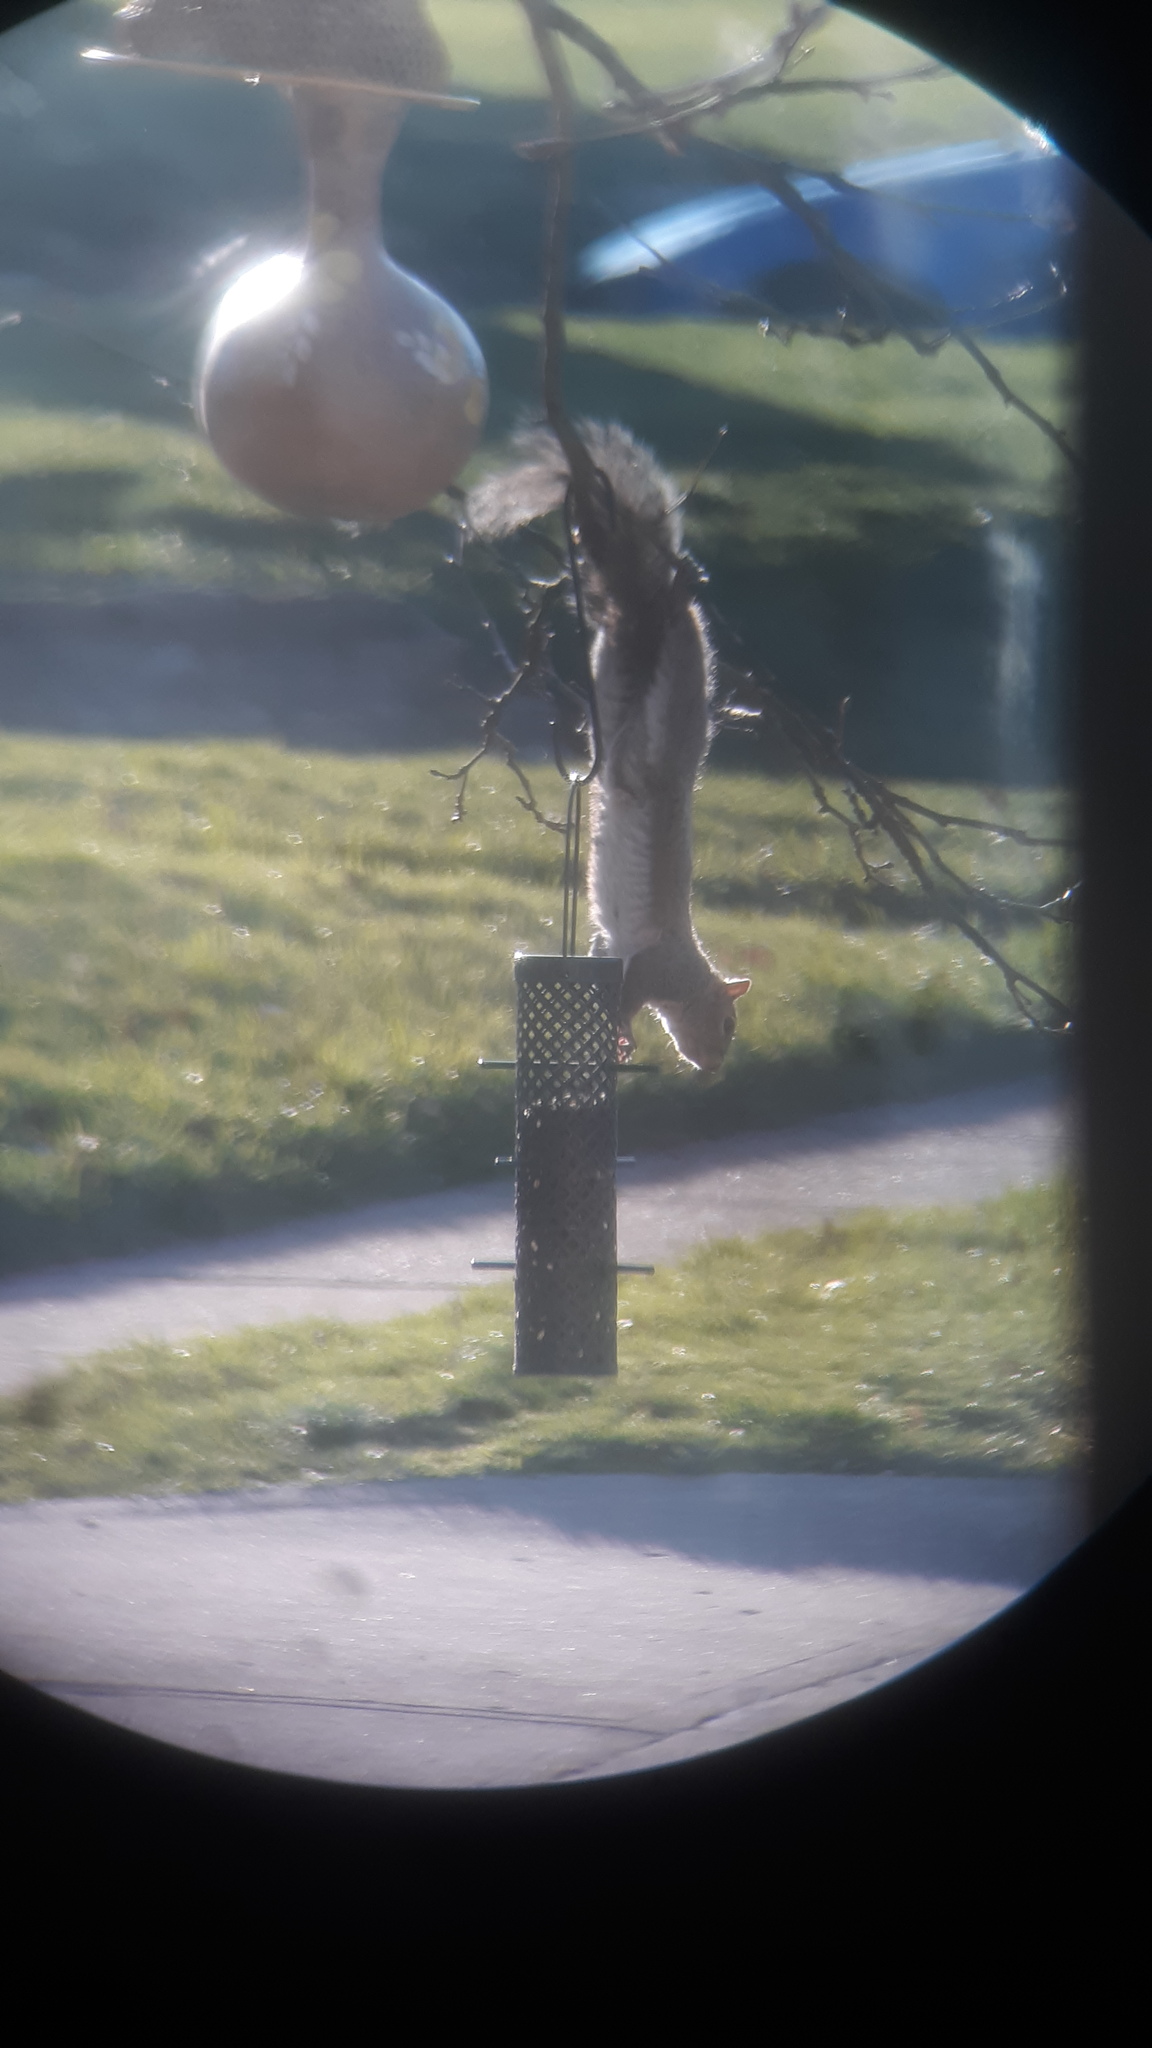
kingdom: Animalia
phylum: Chordata
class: Mammalia
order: Rodentia
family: Sciuridae
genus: Sciurus
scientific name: Sciurus carolinensis
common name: Eastern gray squirrel
